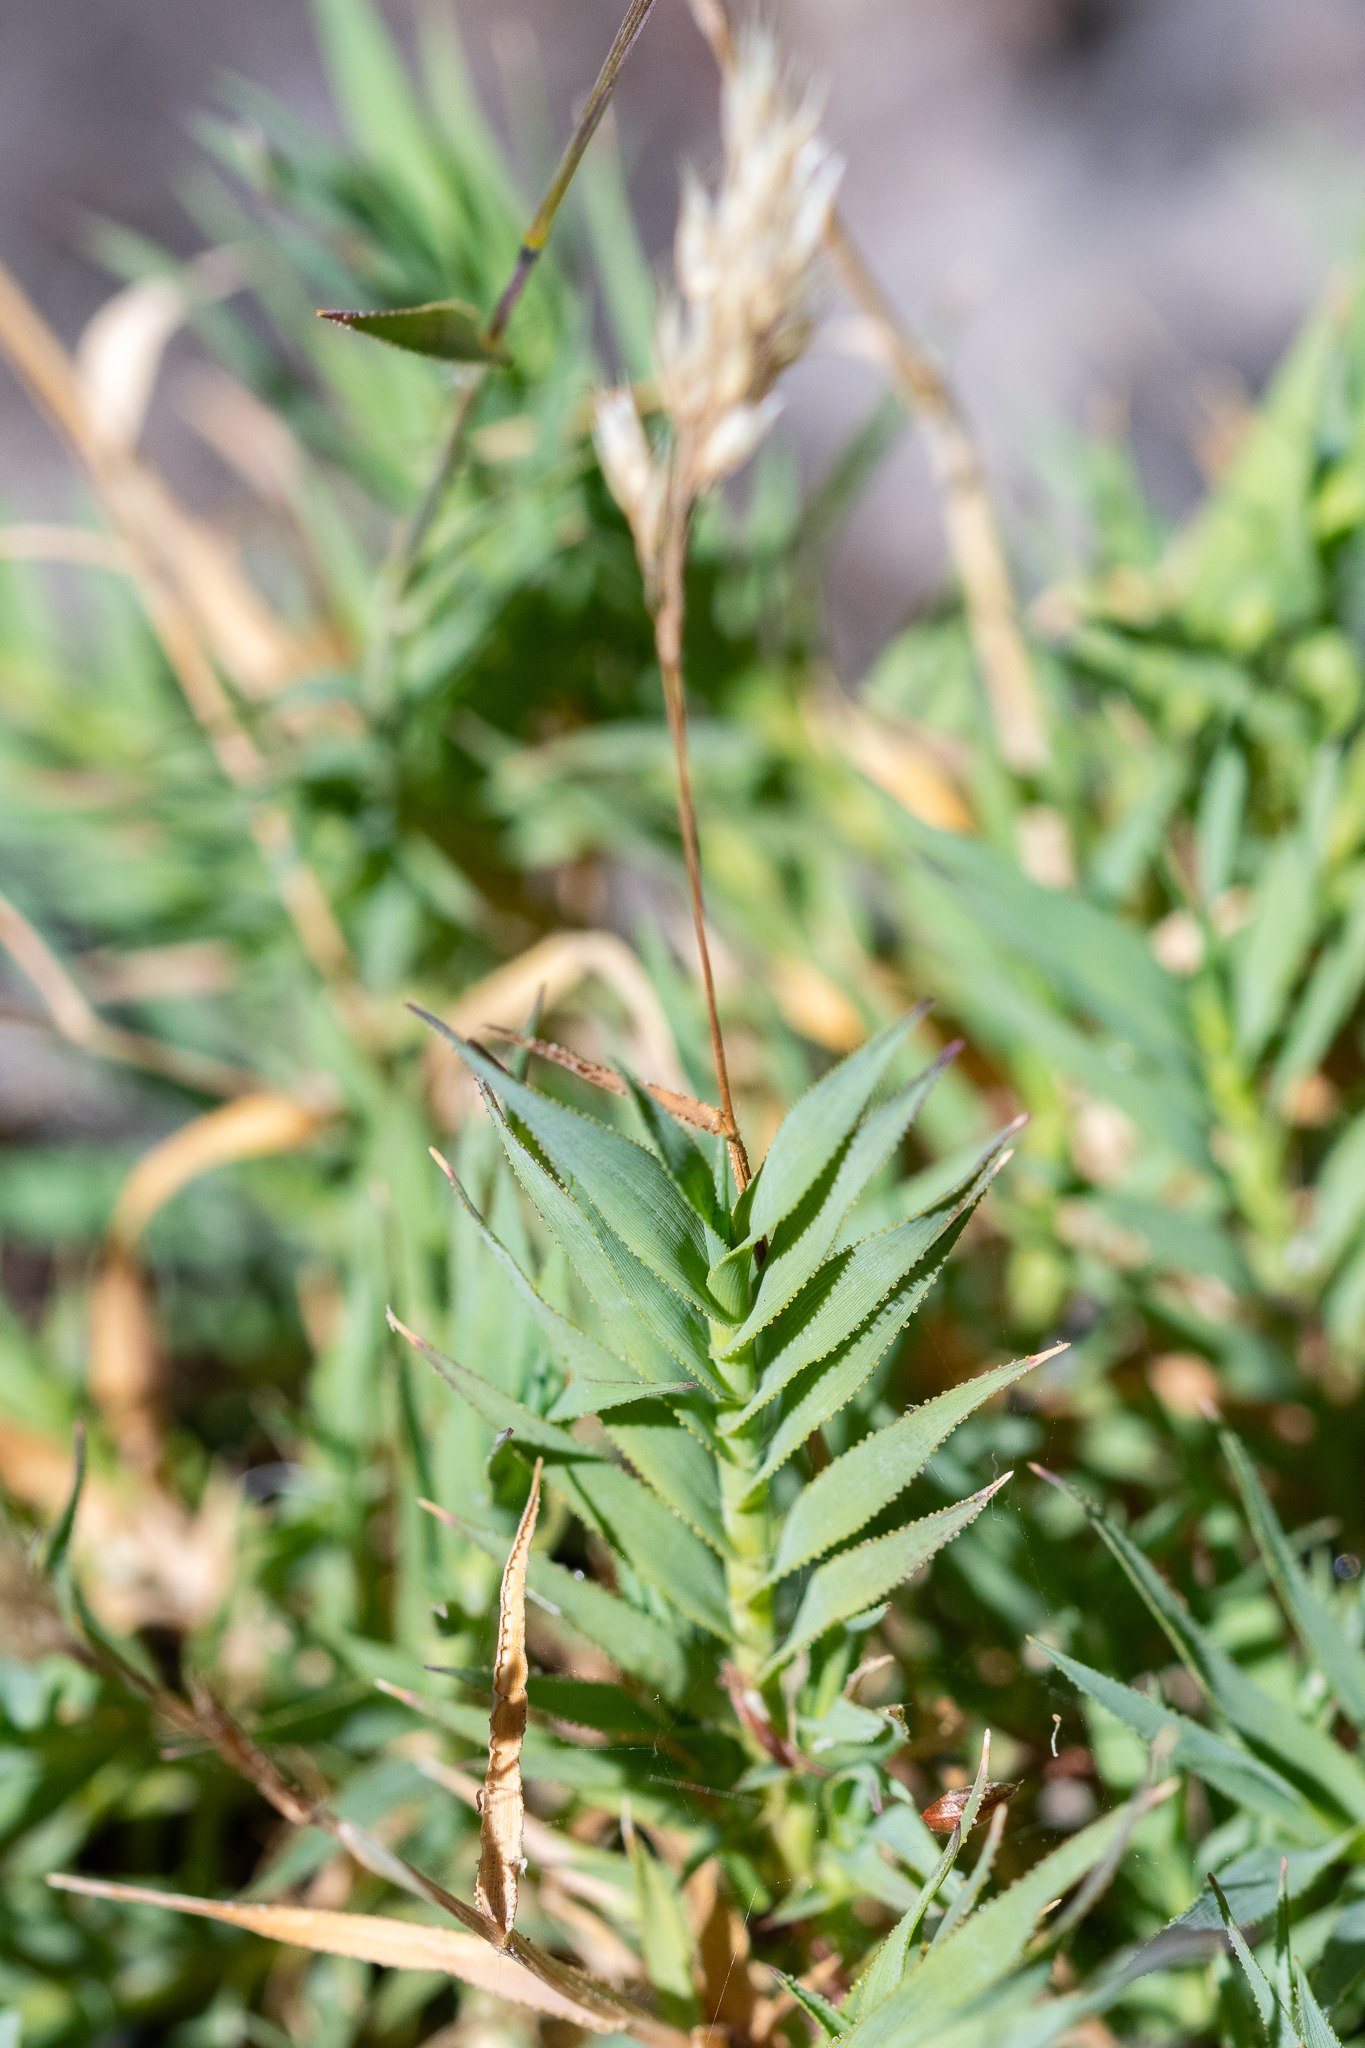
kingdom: Plantae
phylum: Tracheophyta
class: Liliopsida
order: Poales
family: Poaceae
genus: Pentameris
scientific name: Pentameris densifolia
